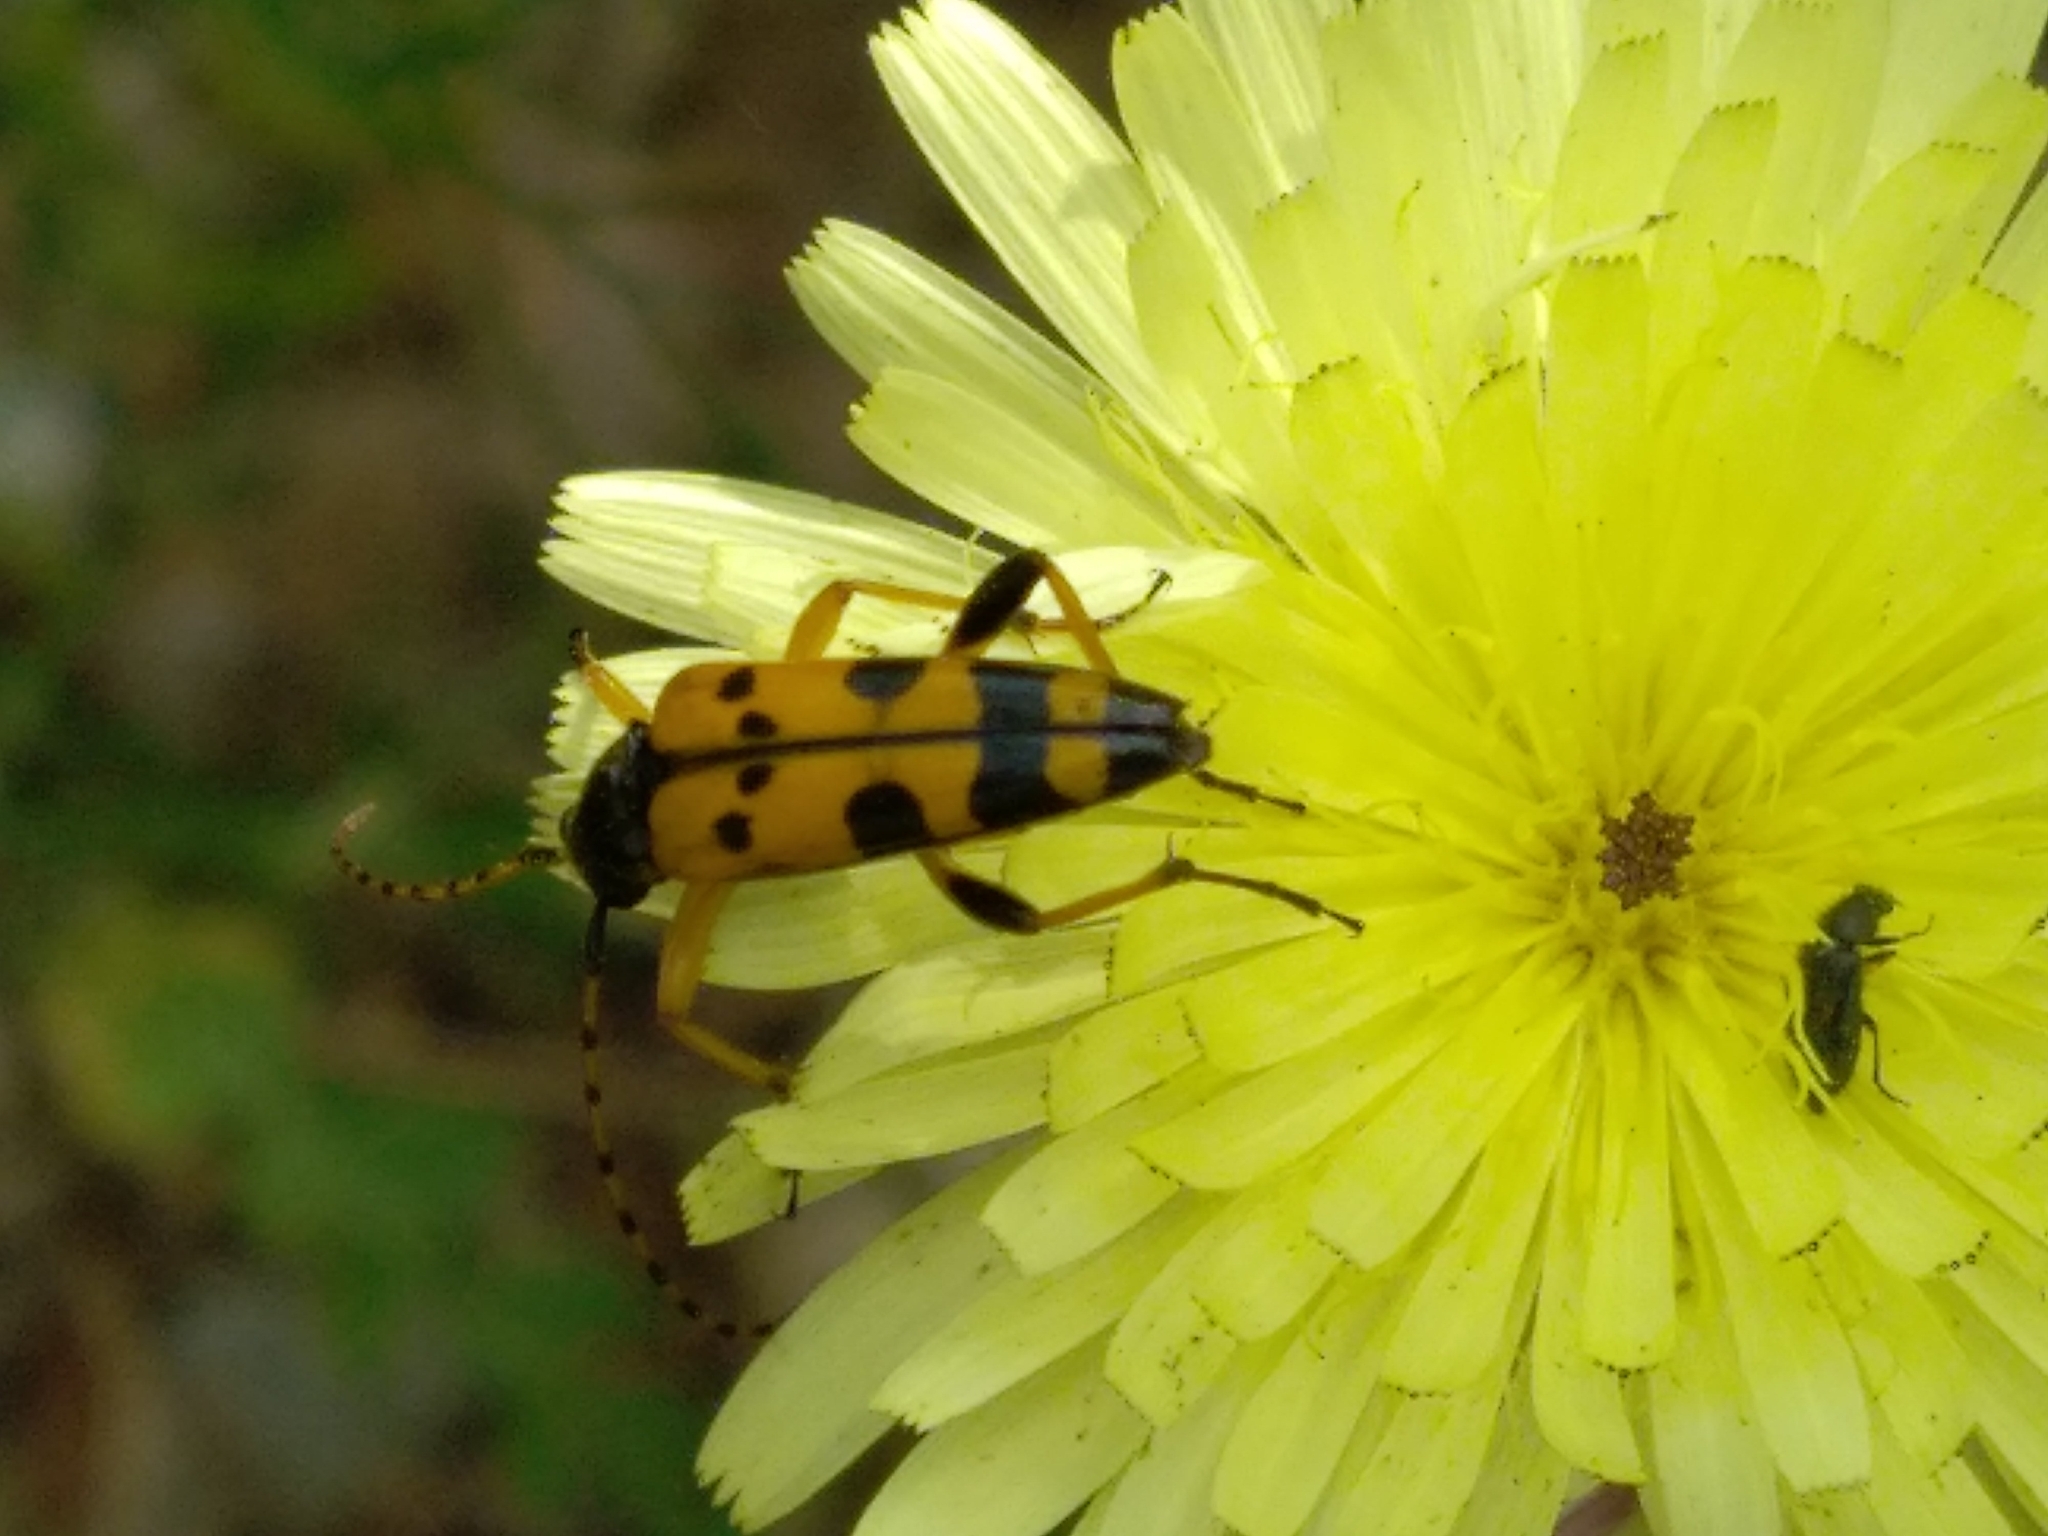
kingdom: Animalia
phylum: Arthropoda
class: Insecta
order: Coleoptera
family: Cerambycidae
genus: Rutpela
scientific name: Rutpela maculata
